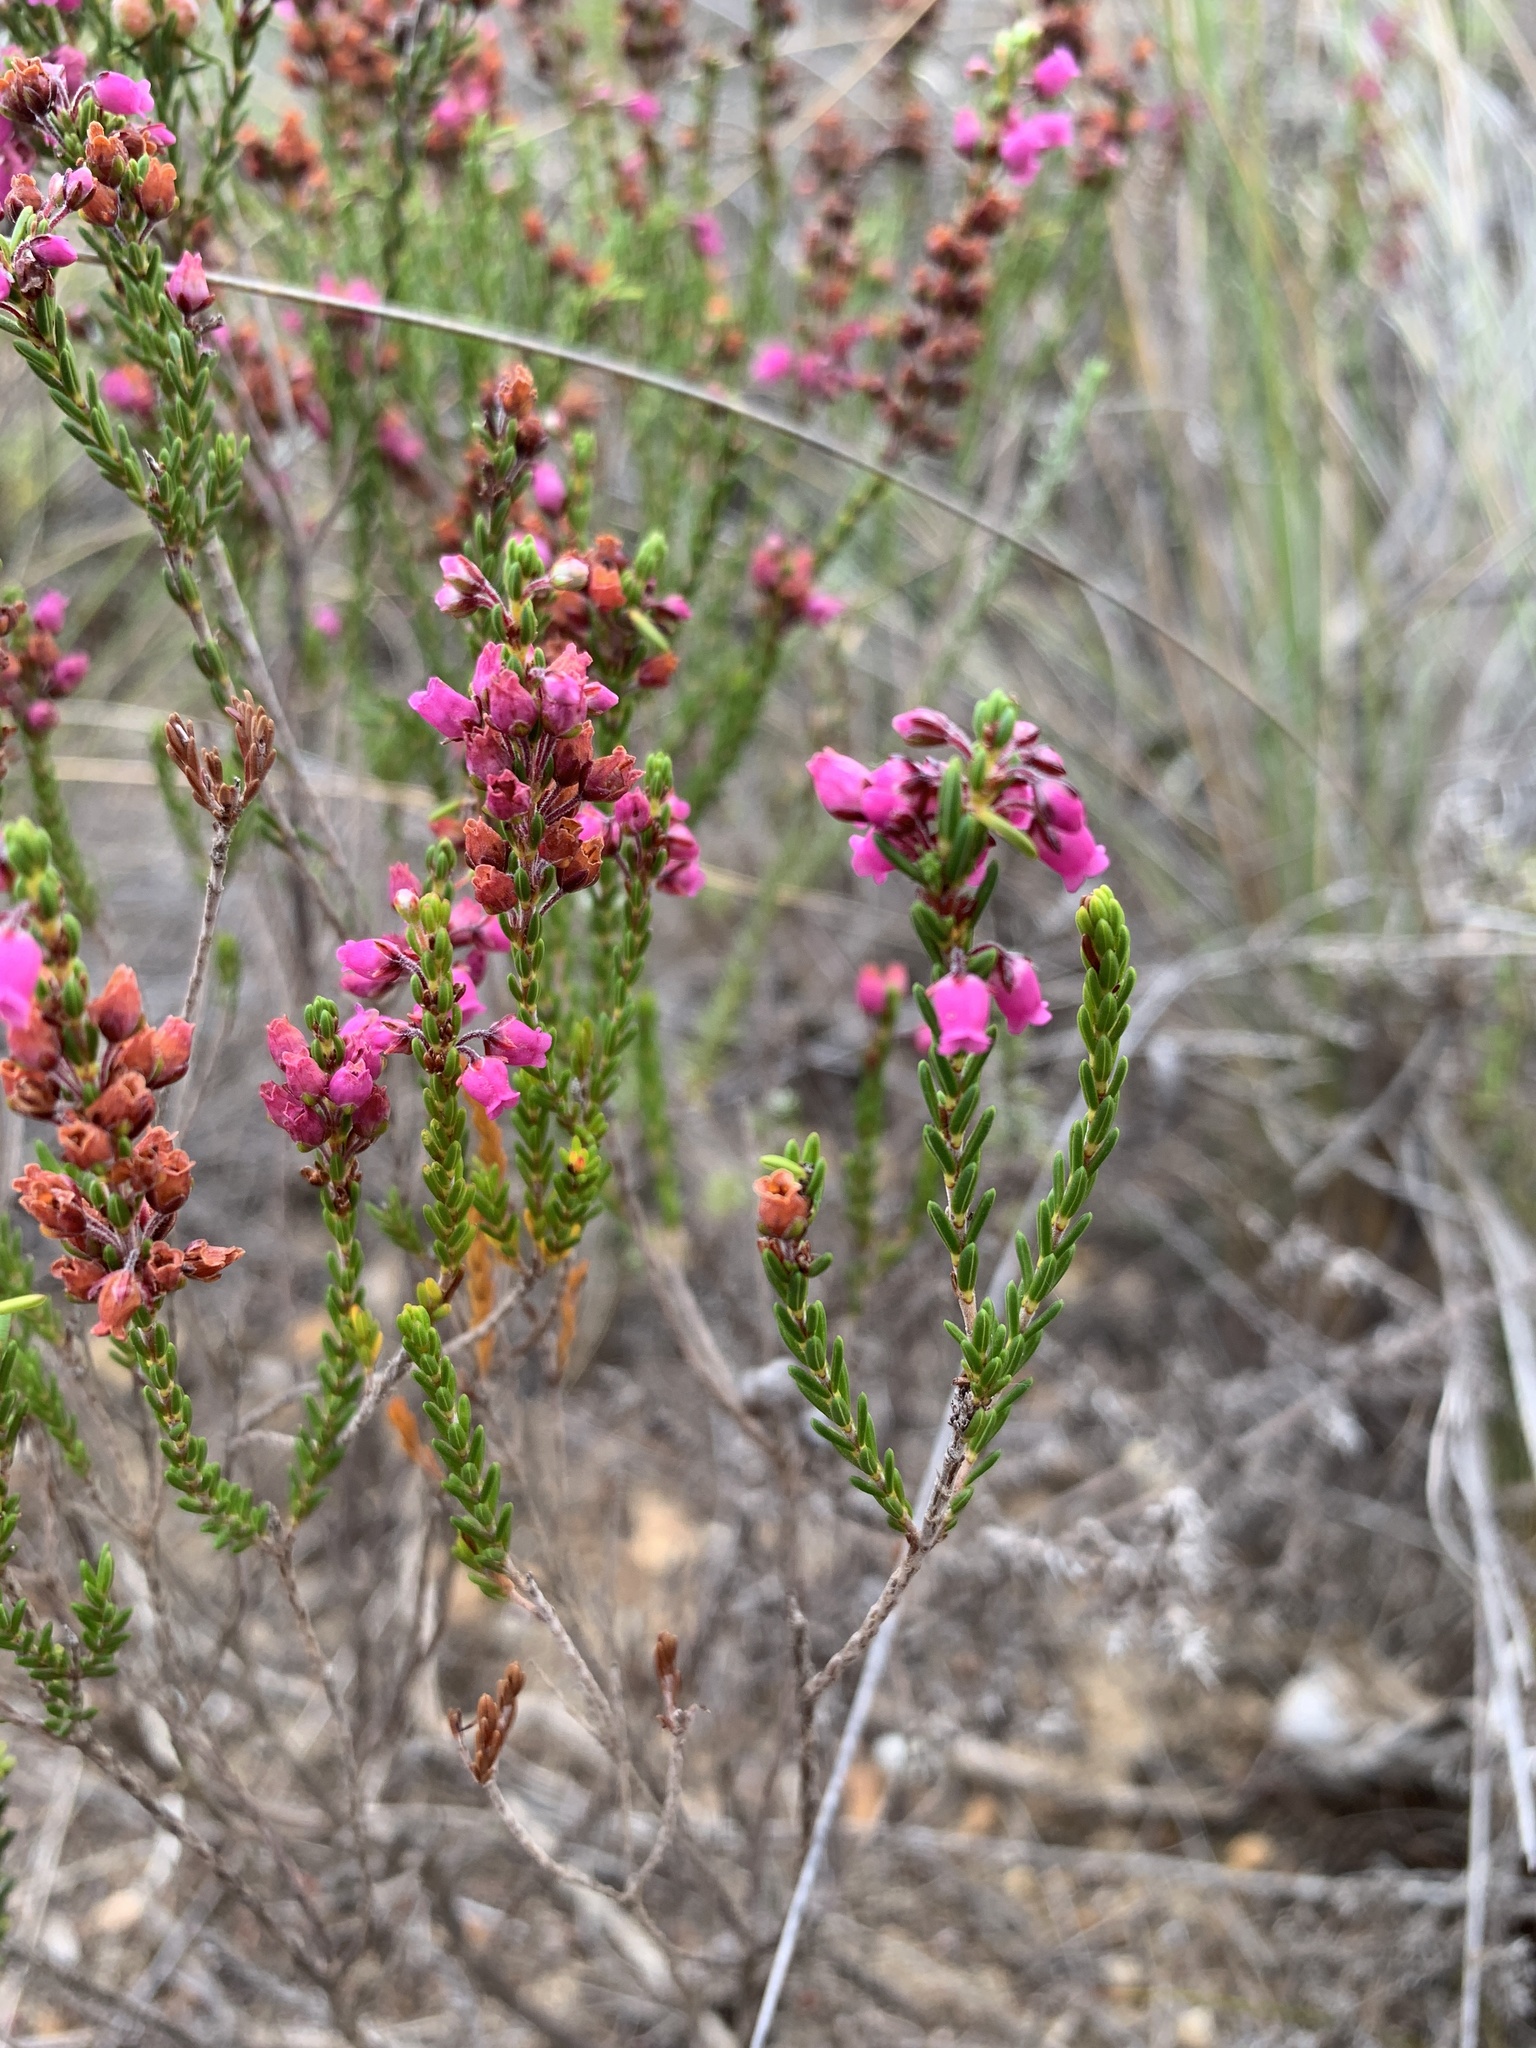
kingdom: Plantae
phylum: Tracheophyta
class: Magnoliopsida
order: Ericales
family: Ericaceae
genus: Erica
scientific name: Erica pulchella
